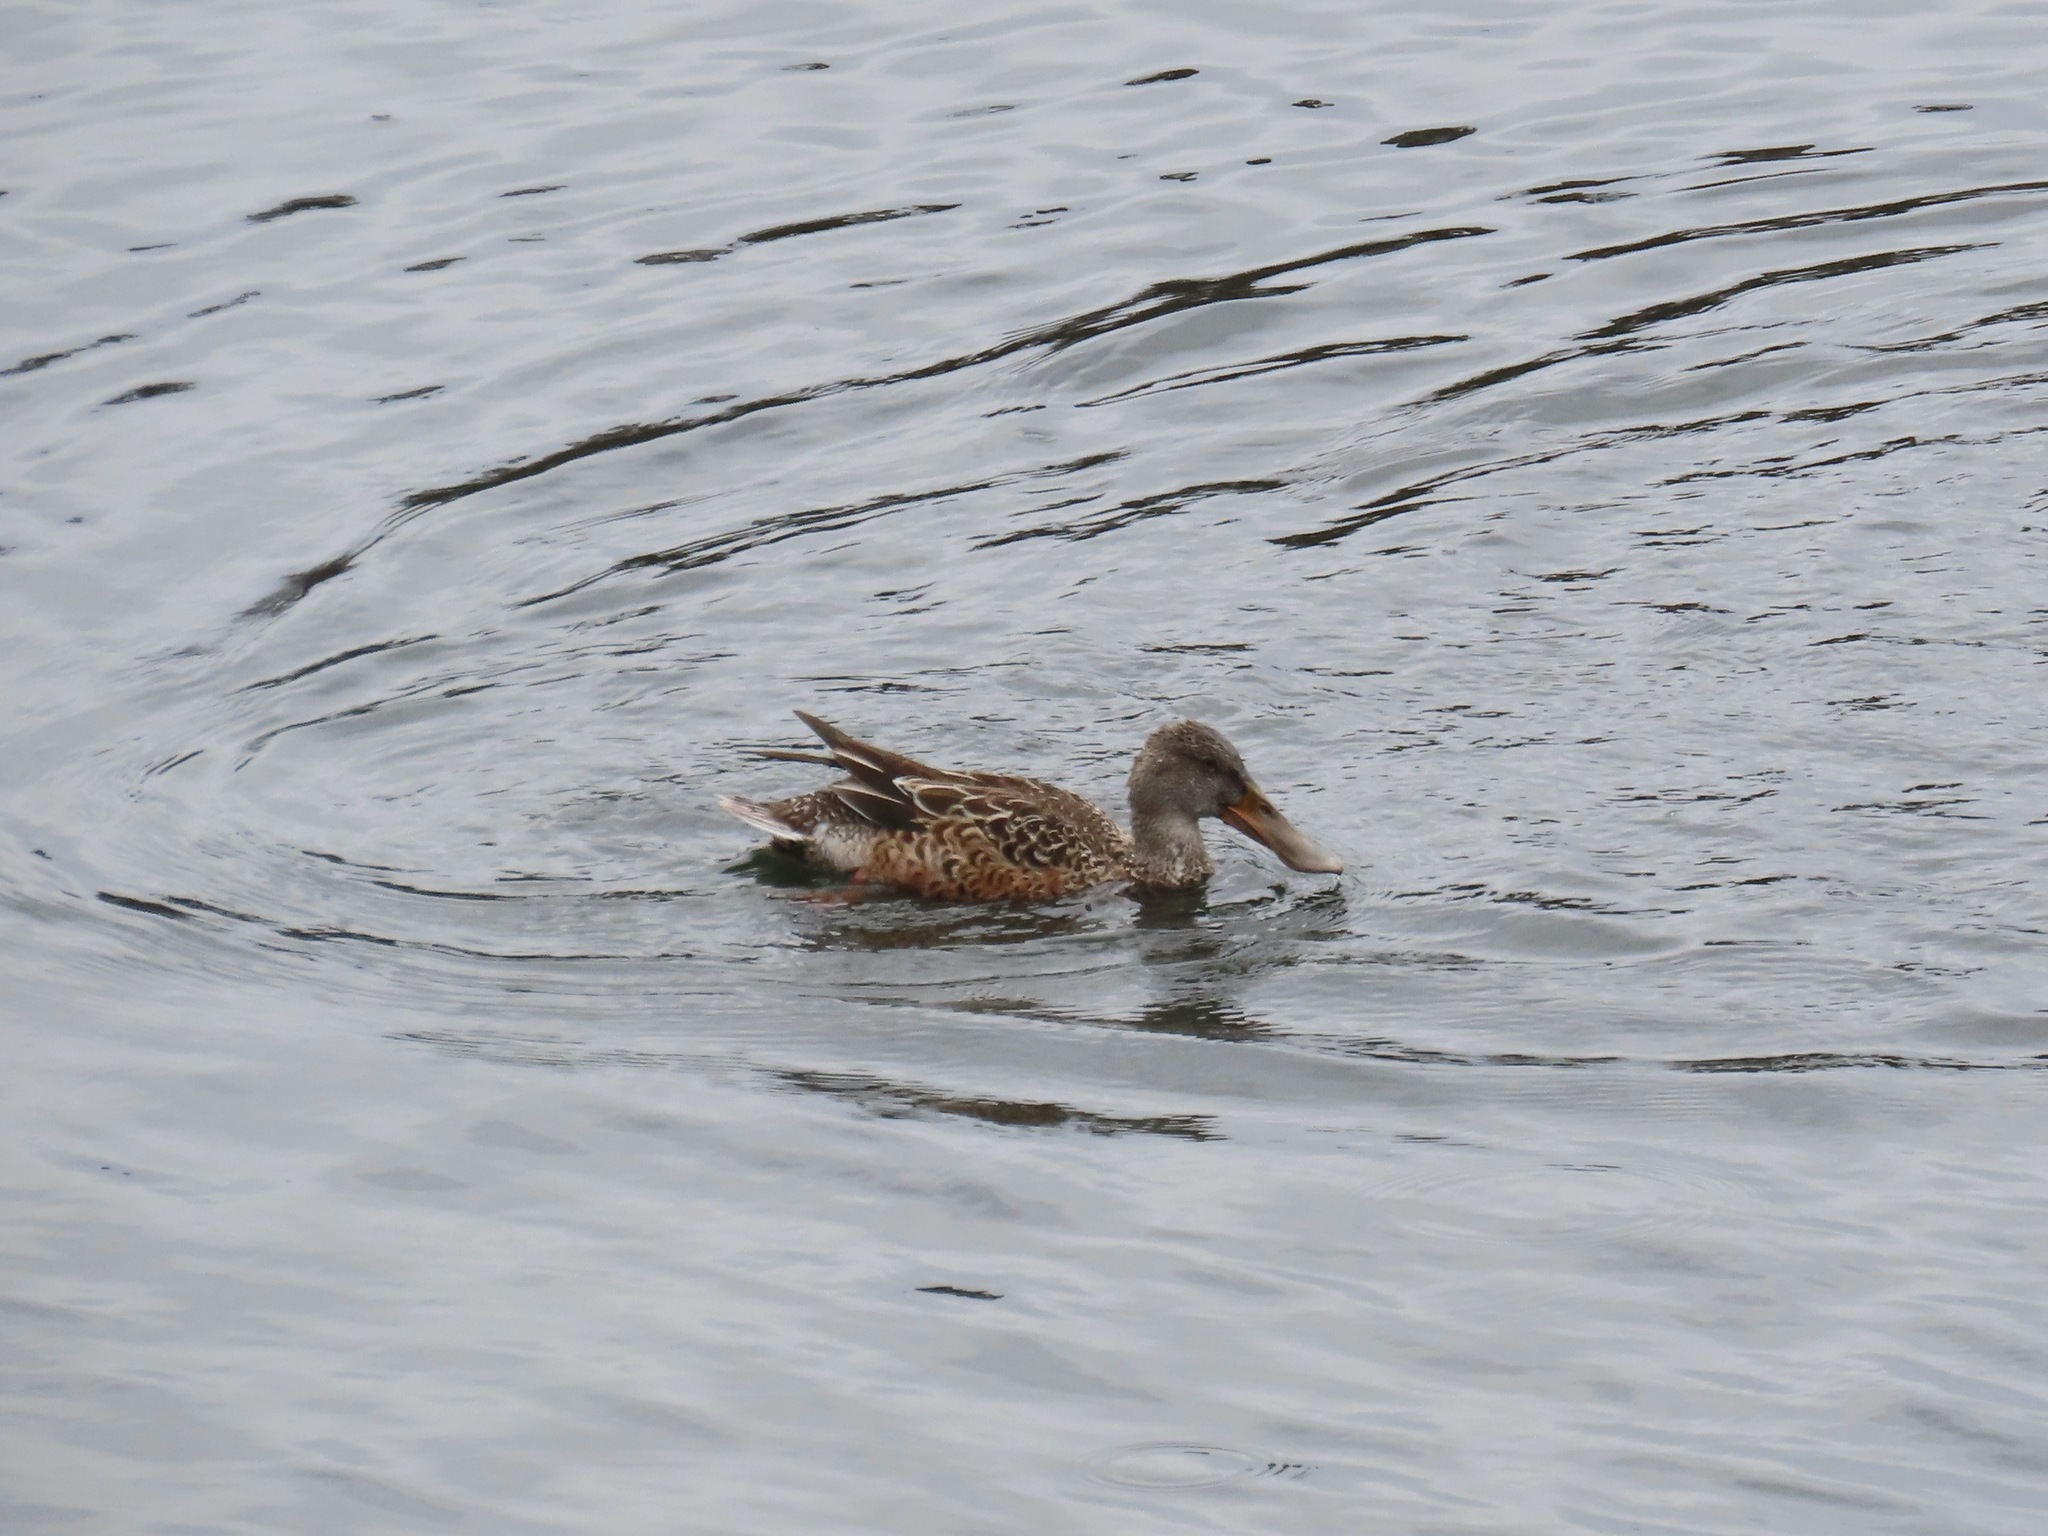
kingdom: Animalia
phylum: Chordata
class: Aves
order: Anseriformes
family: Anatidae
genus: Spatula
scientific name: Spatula clypeata
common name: Northern shoveler
